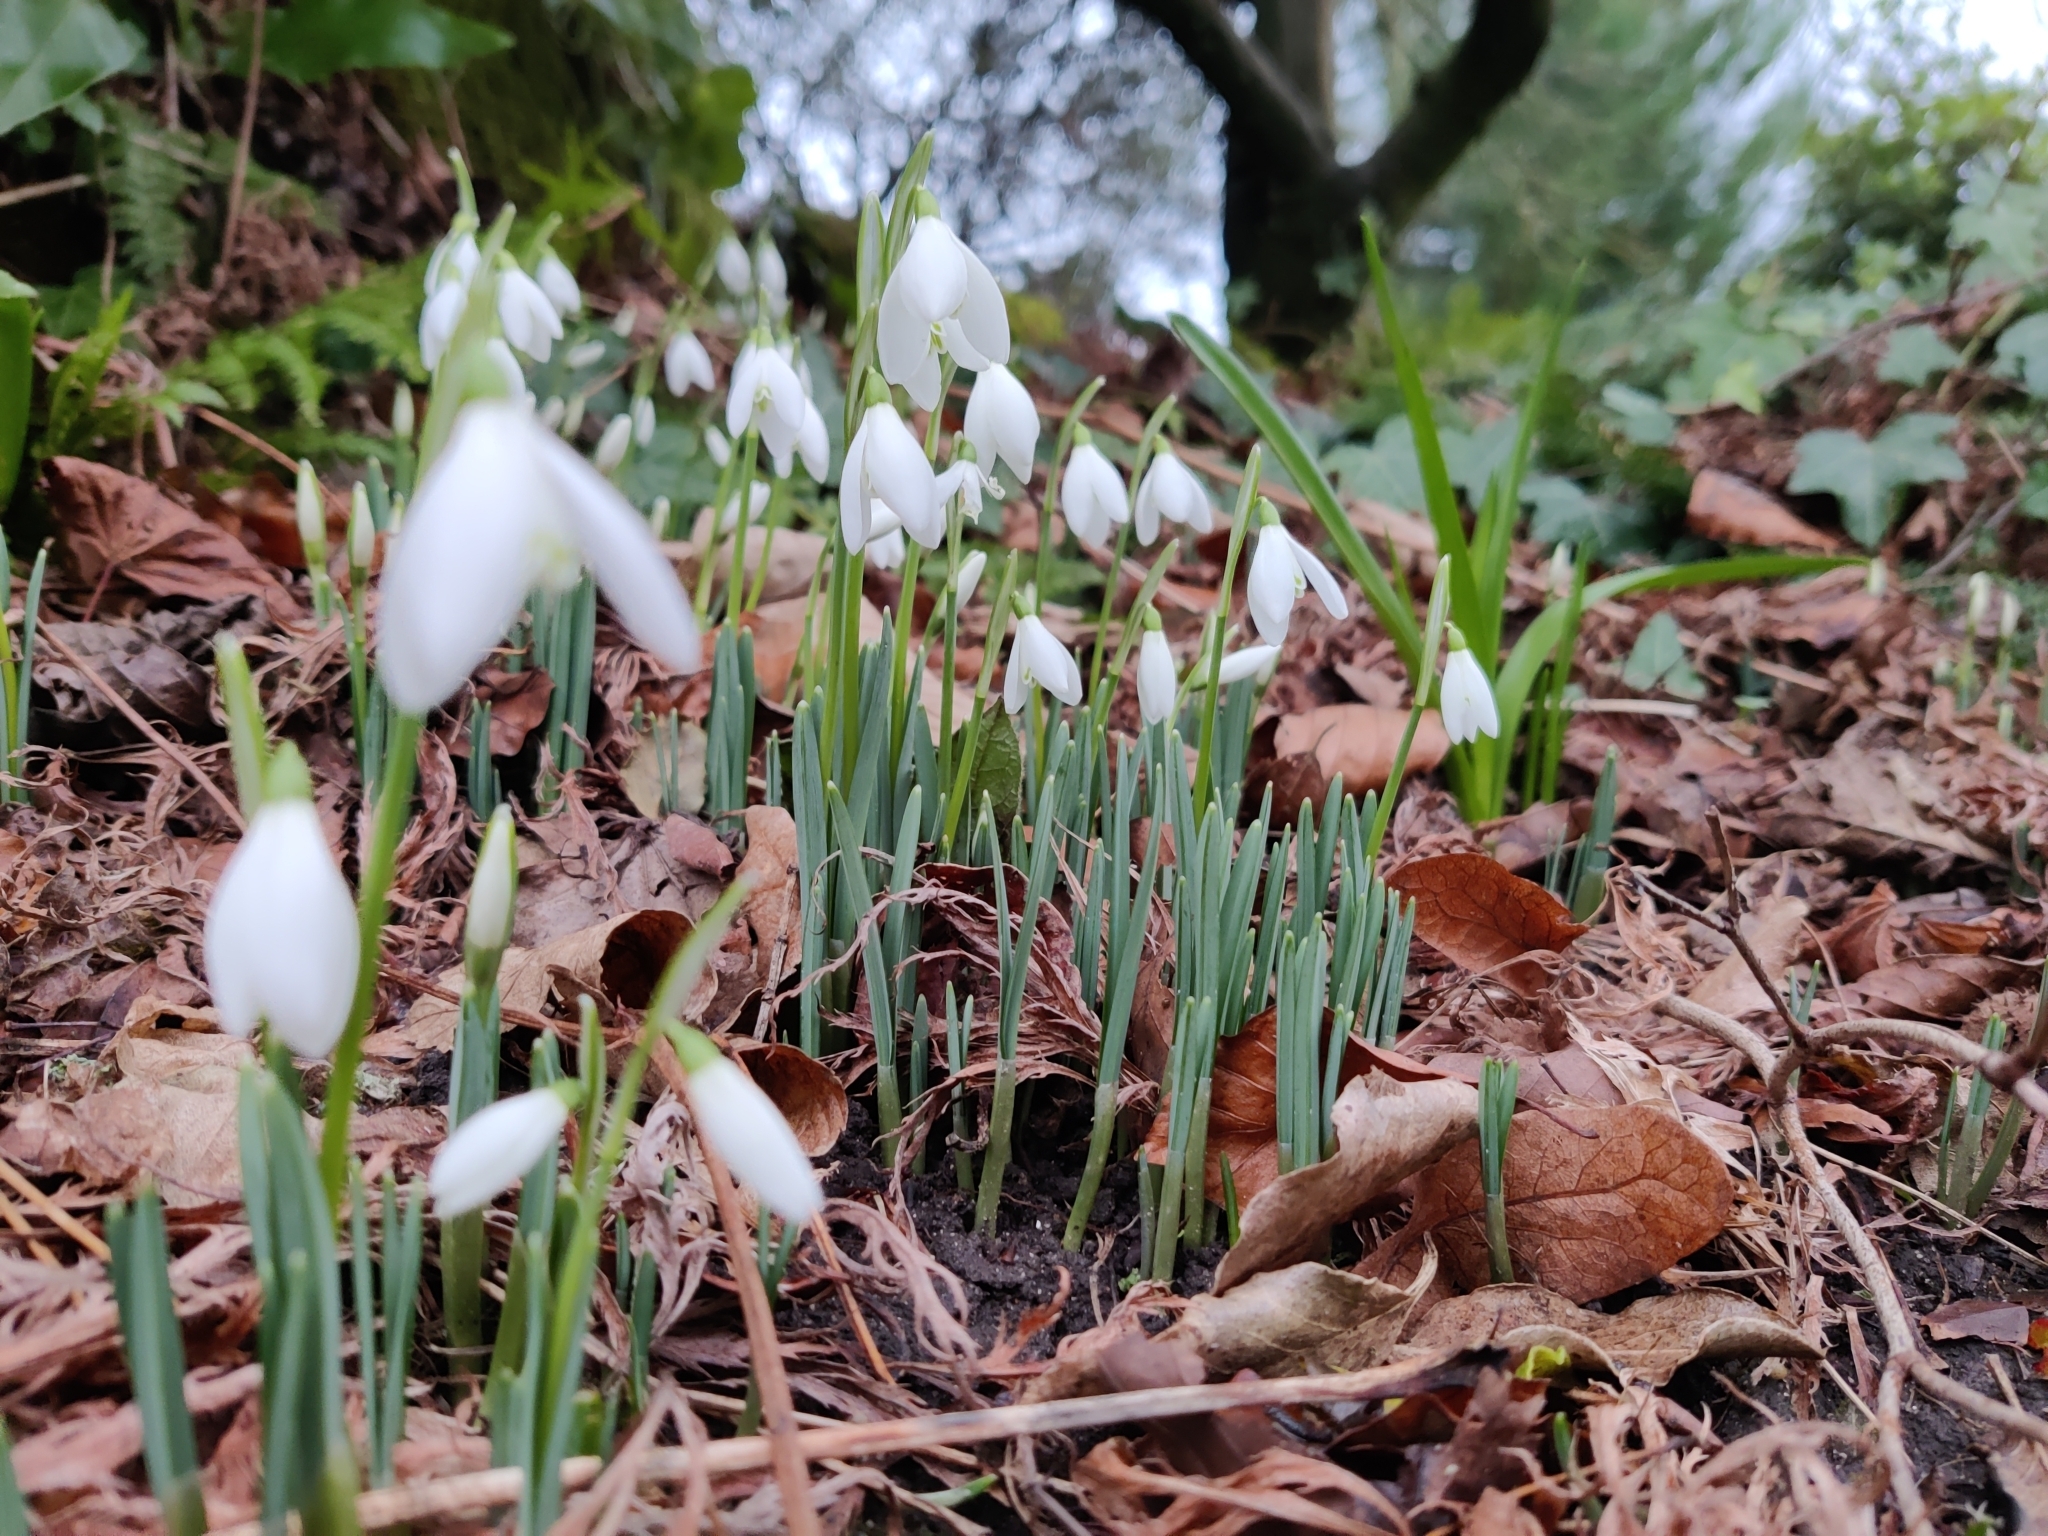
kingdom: Plantae
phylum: Tracheophyta
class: Liliopsida
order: Asparagales
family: Amaryllidaceae
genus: Galanthus
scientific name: Galanthus nivalis
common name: Snowdrop
